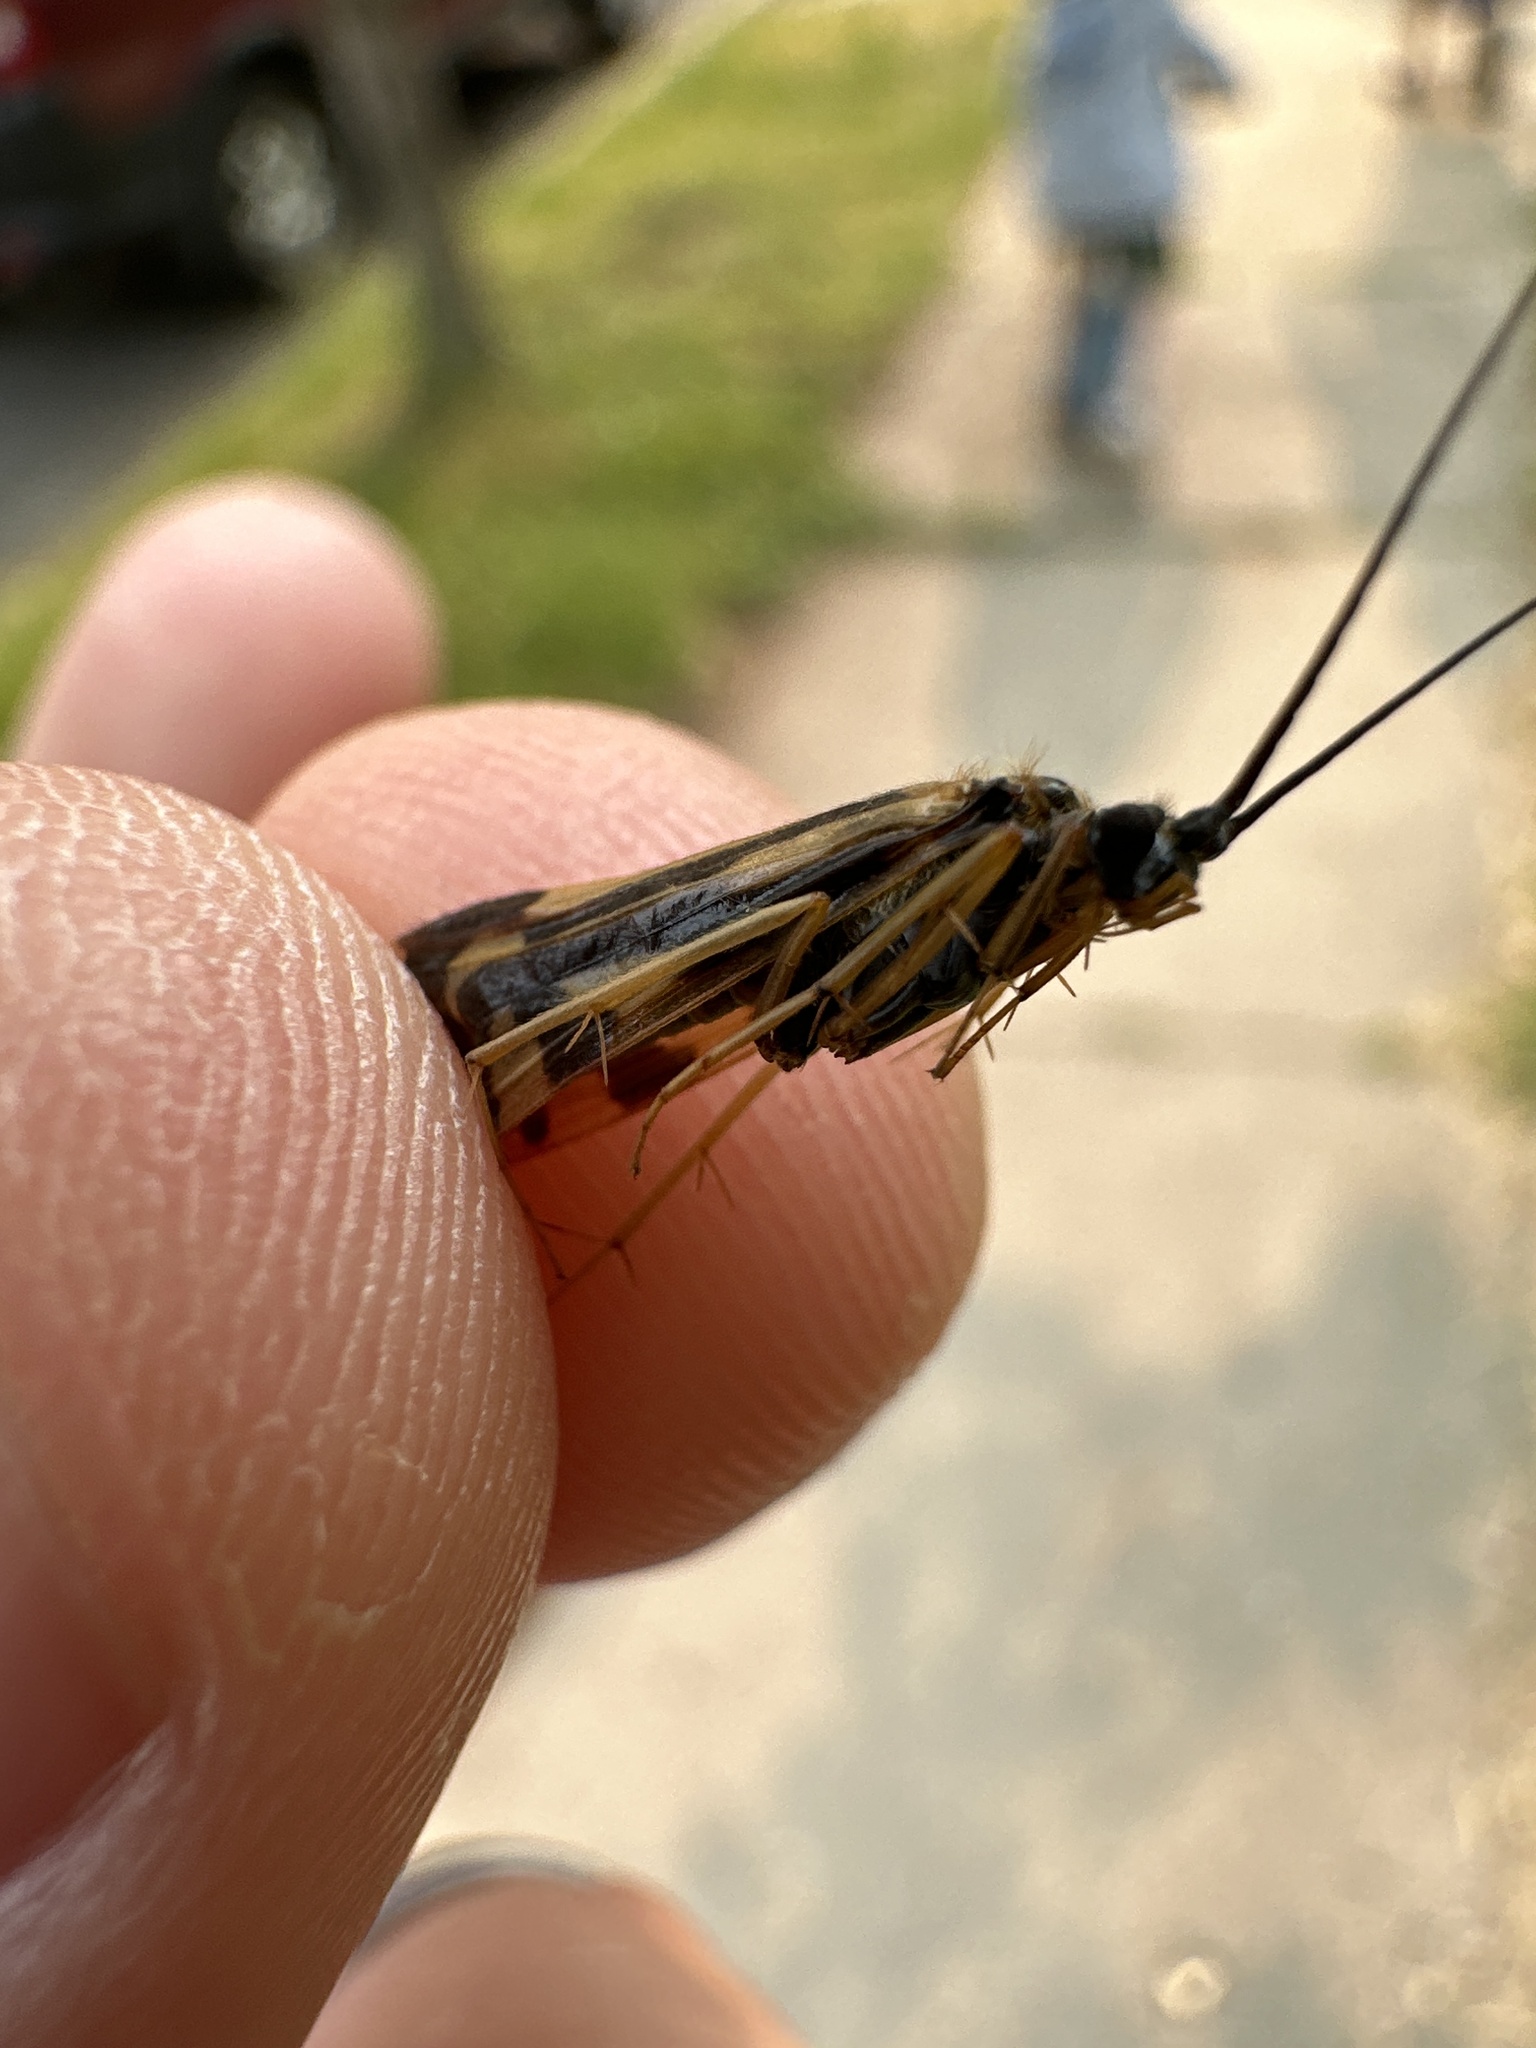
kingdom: Animalia
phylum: Arthropoda
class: Insecta
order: Trichoptera
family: Hydropsychidae
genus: Macrostemum
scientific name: Macrostemum zebratum
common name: Zebra caddisfly
